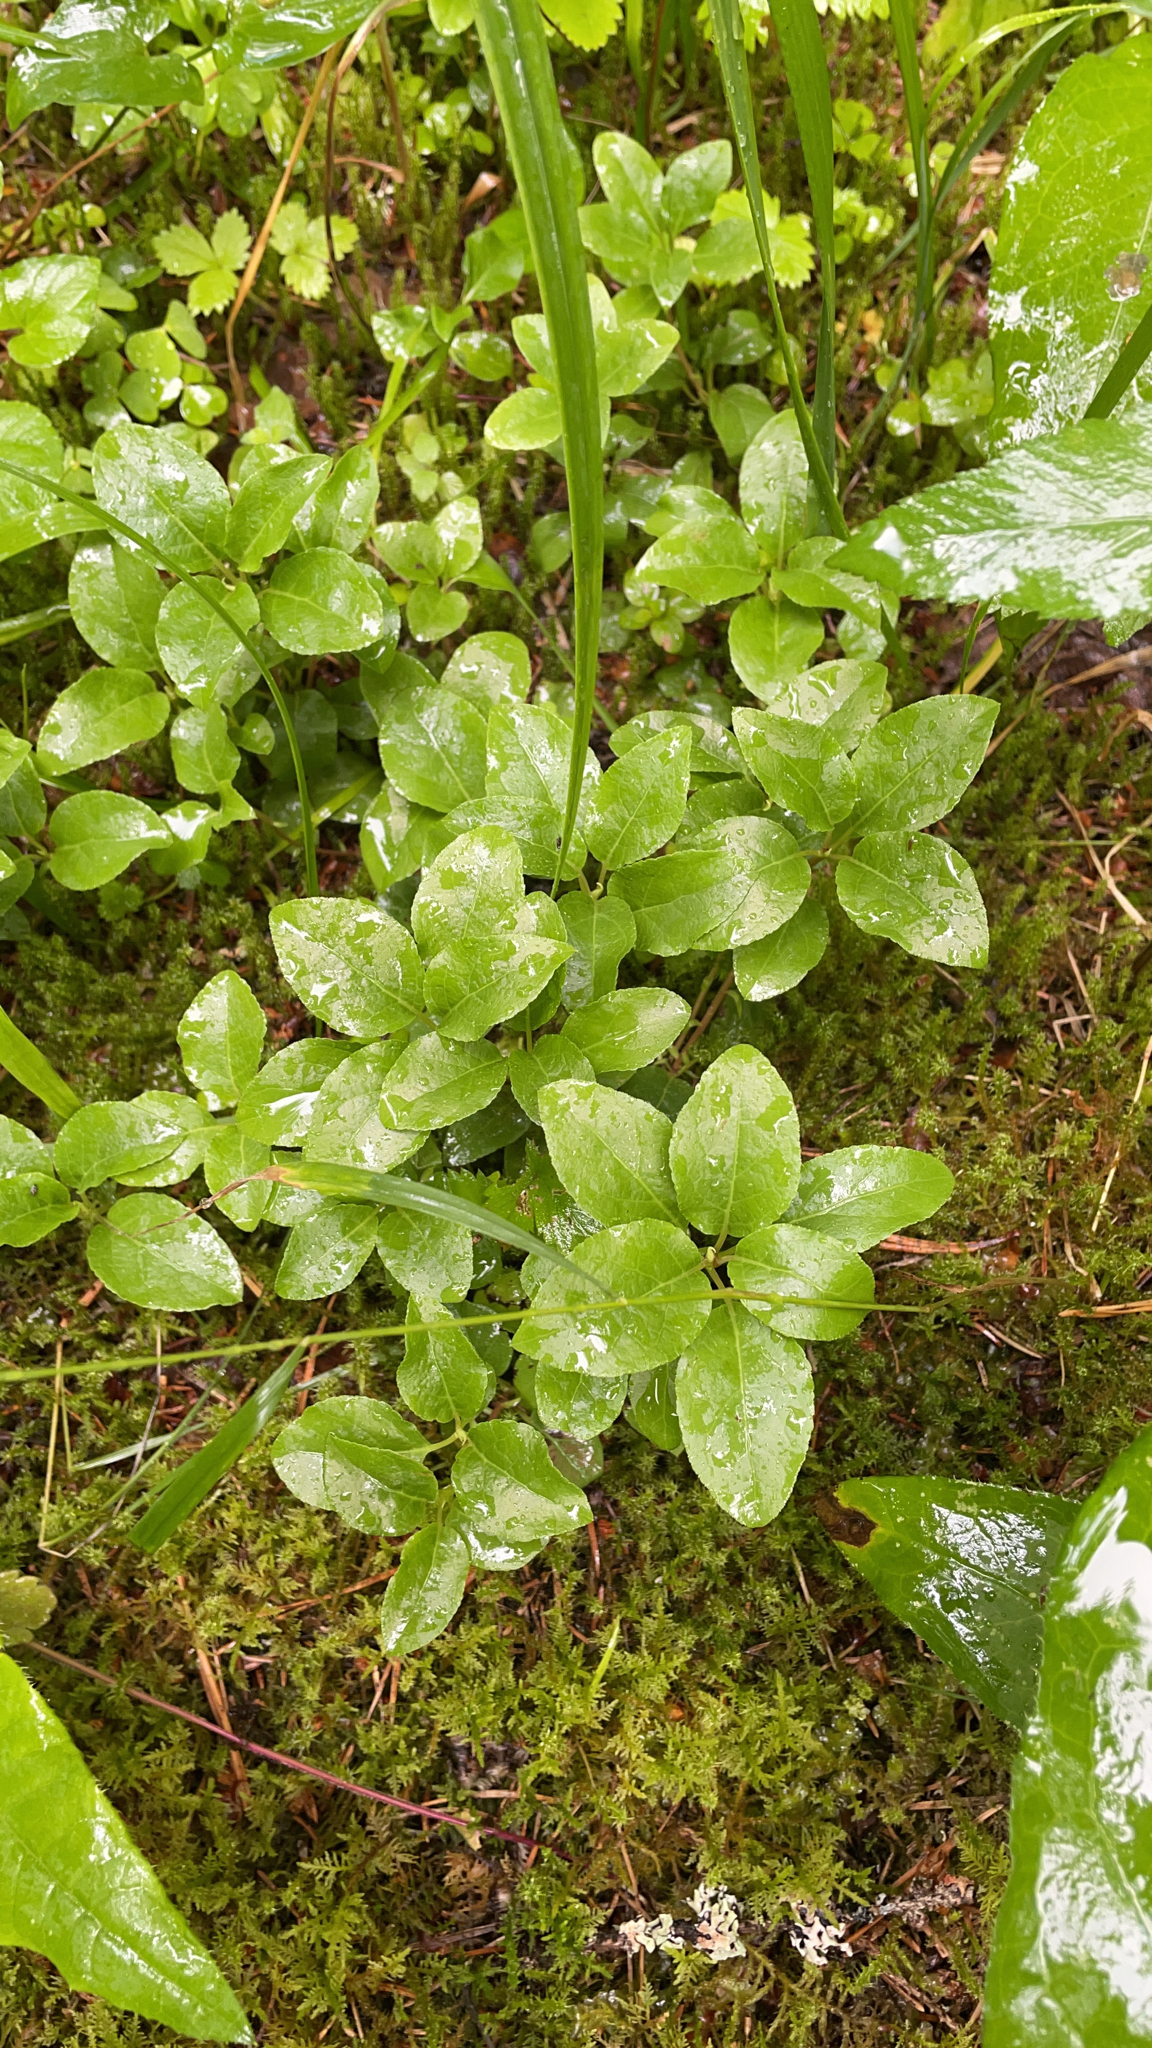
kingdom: Plantae
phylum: Tracheophyta
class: Magnoliopsida
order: Ericales
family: Ericaceae
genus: Orthilia
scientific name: Orthilia secunda
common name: One-sided orthilia
